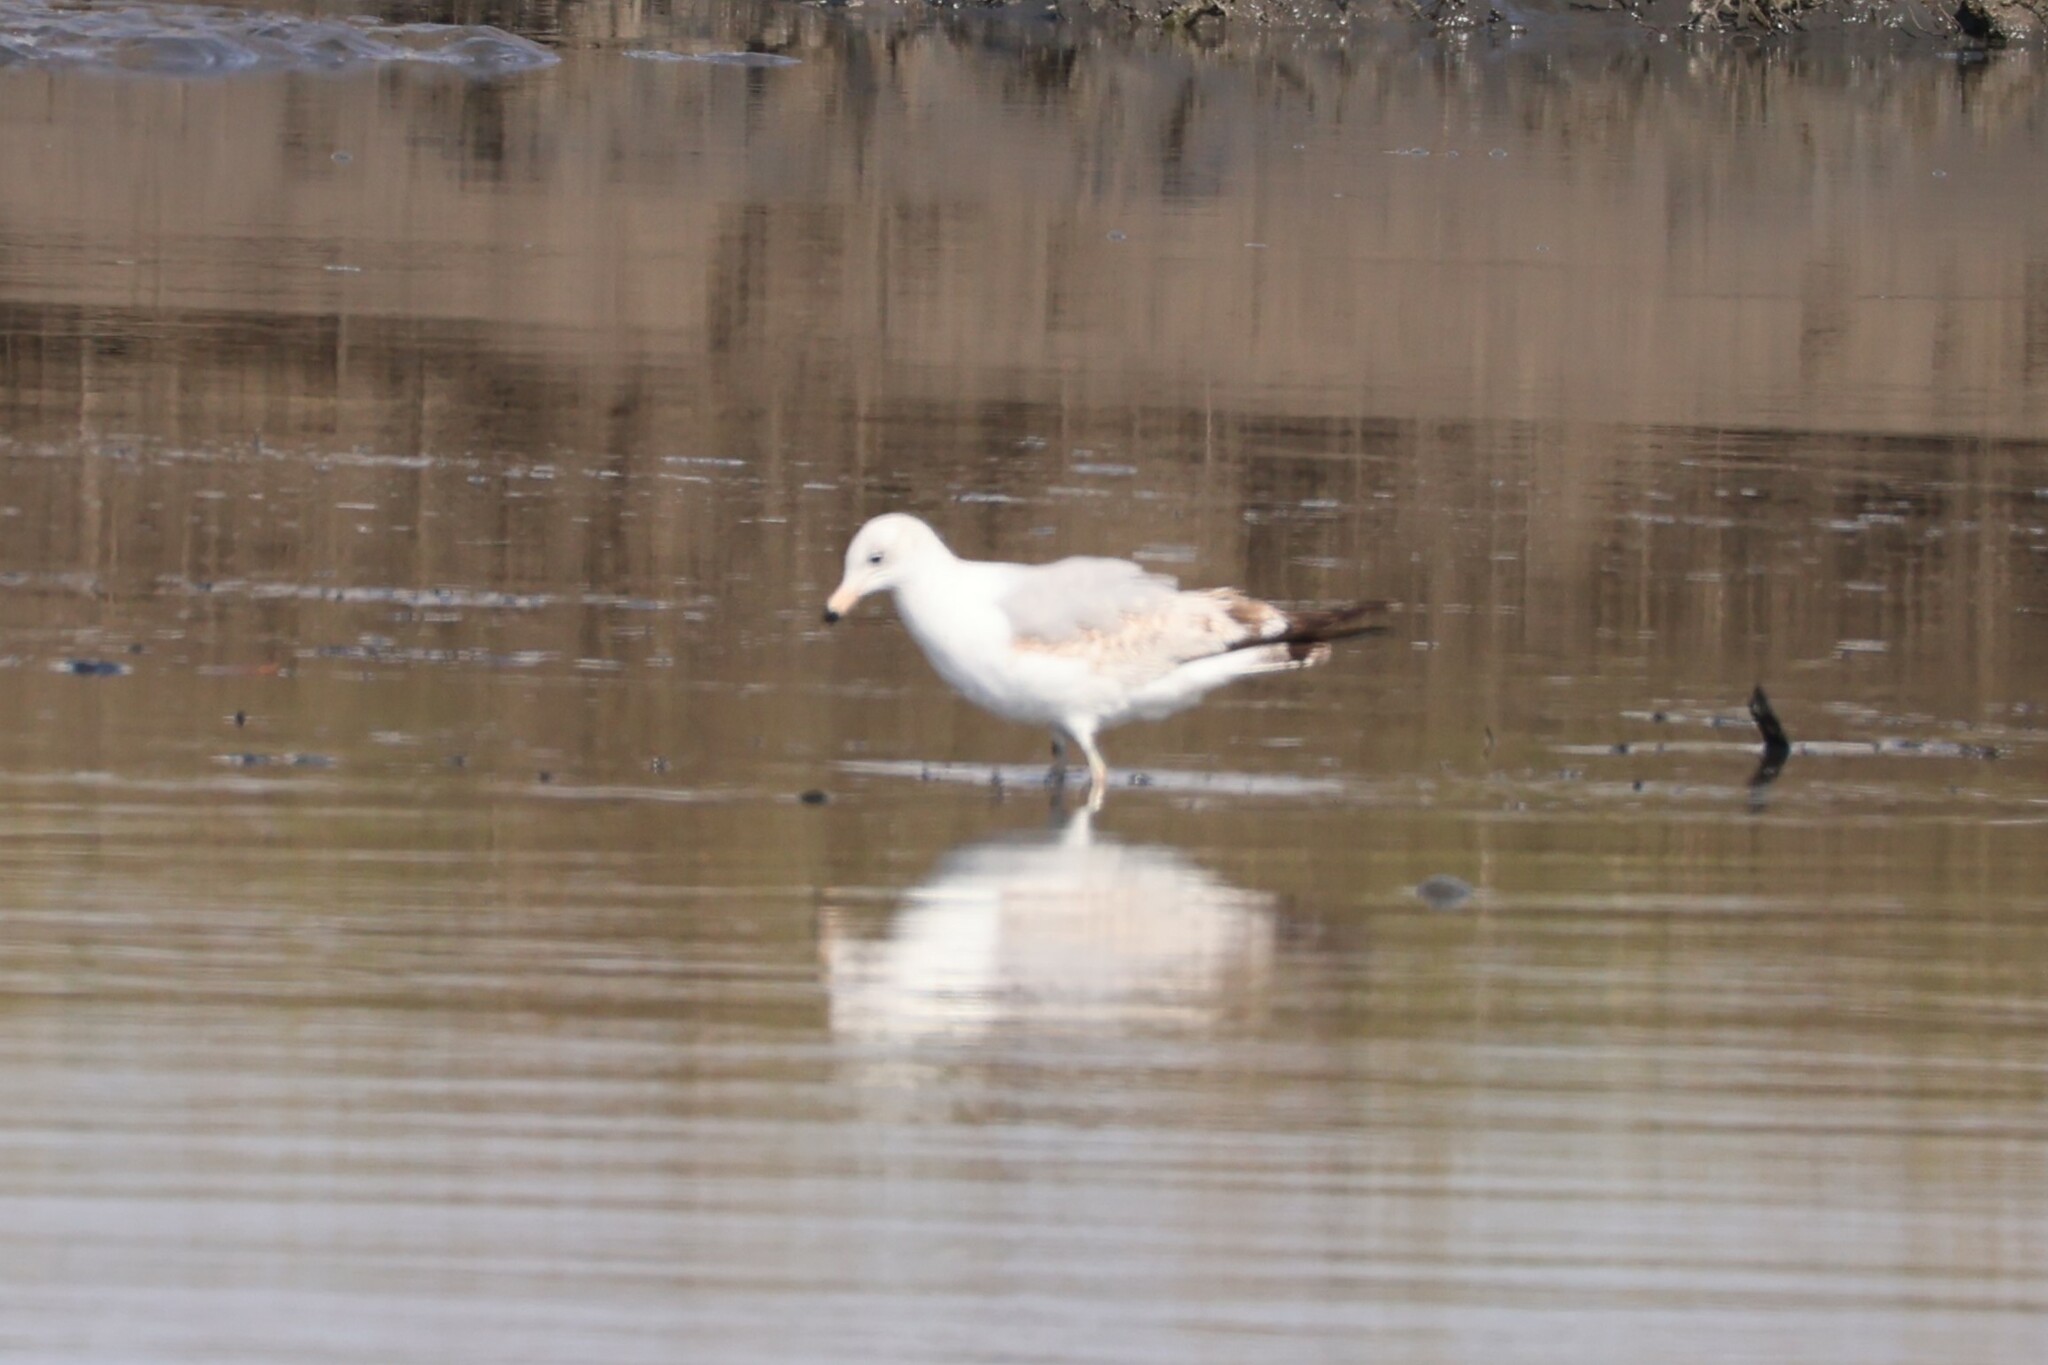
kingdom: Animalia
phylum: Chordata
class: Aves
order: Charadriiformes
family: Laridae
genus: Larus
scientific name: Larus delawarensis
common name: Ring-billed gull
